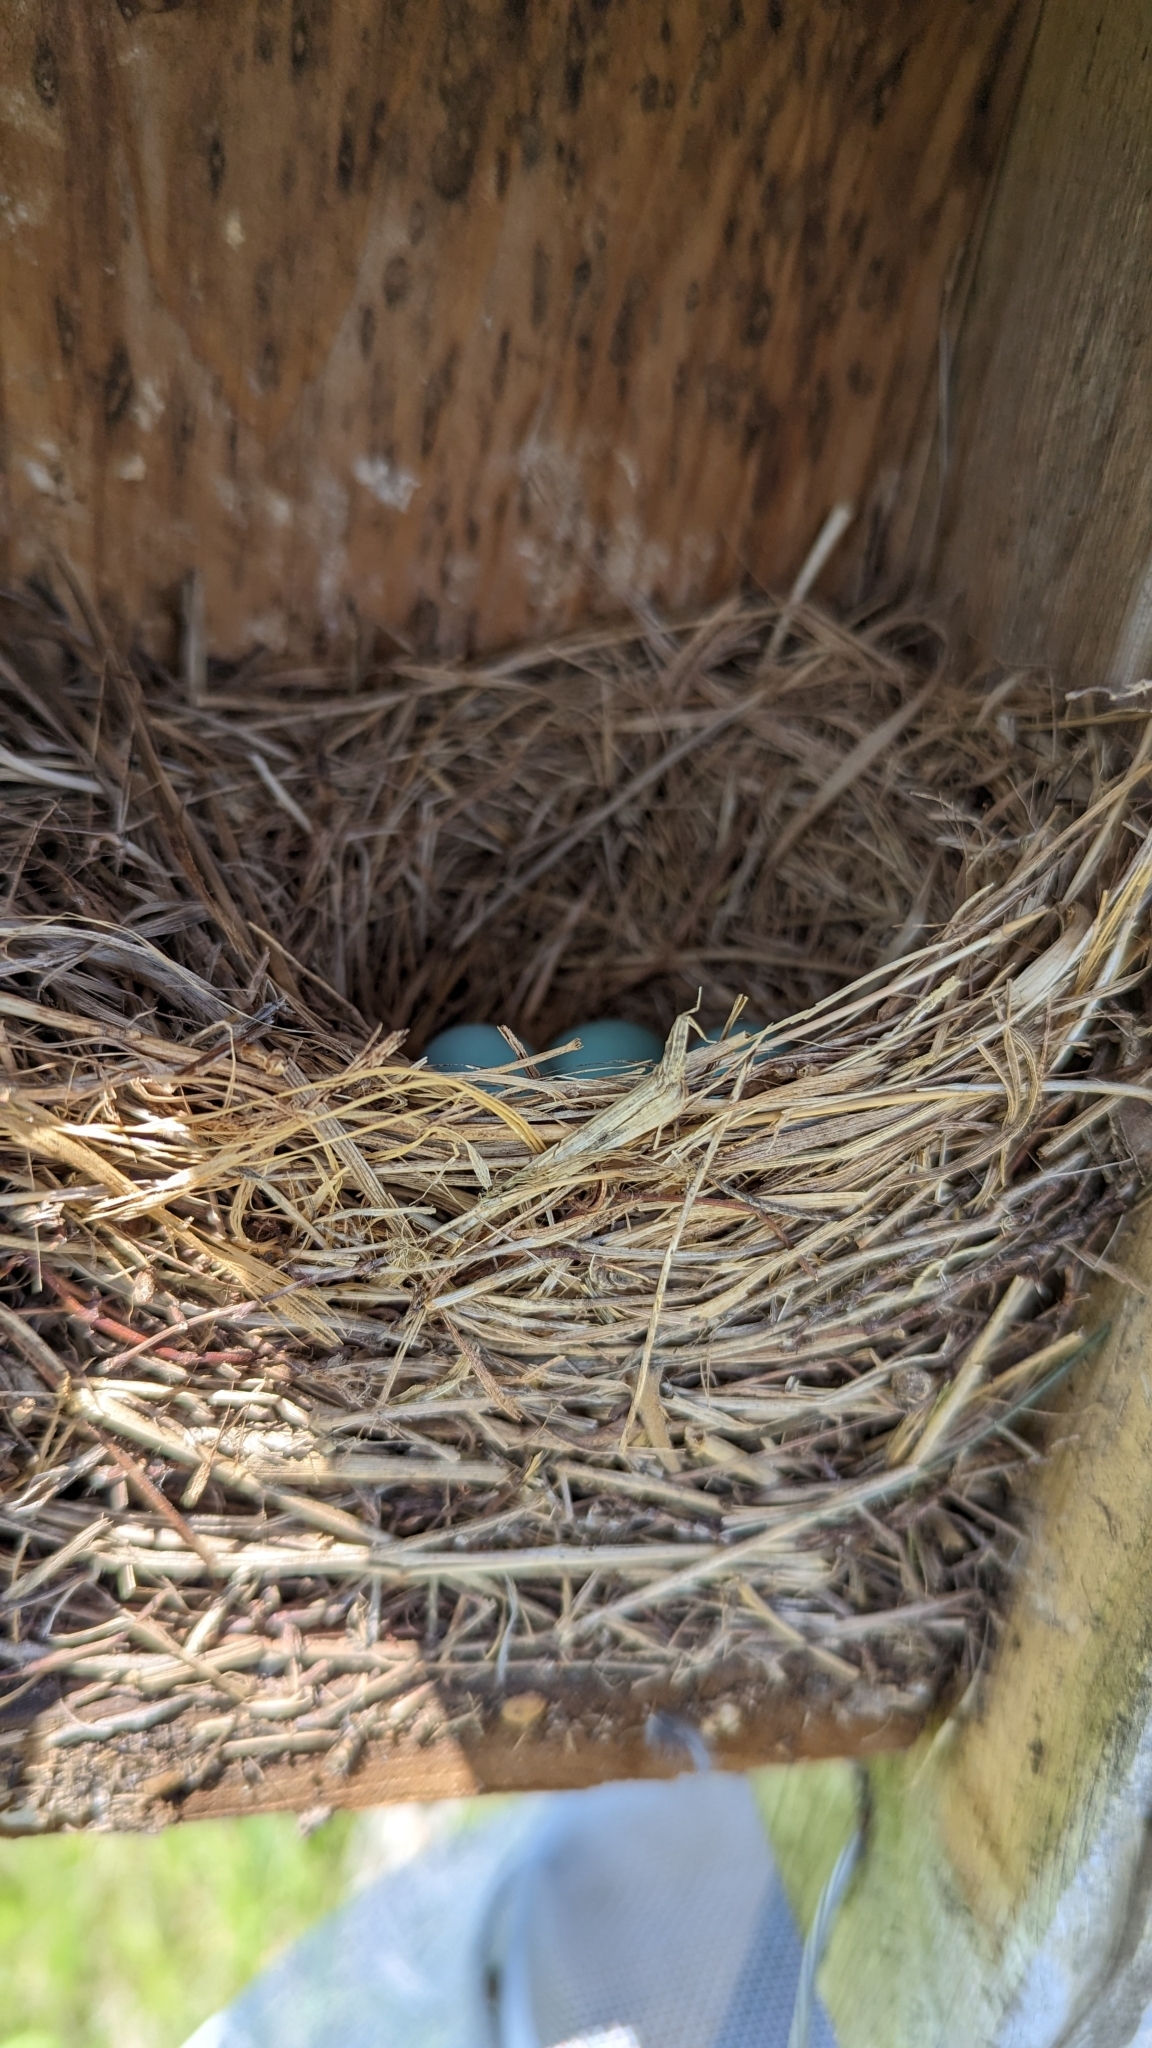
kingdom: Animalia
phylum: Chordata
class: Aves
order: Passeriformes
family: Turdidae
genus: Sialia
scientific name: Sialia sialis
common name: Eastern bluebird
